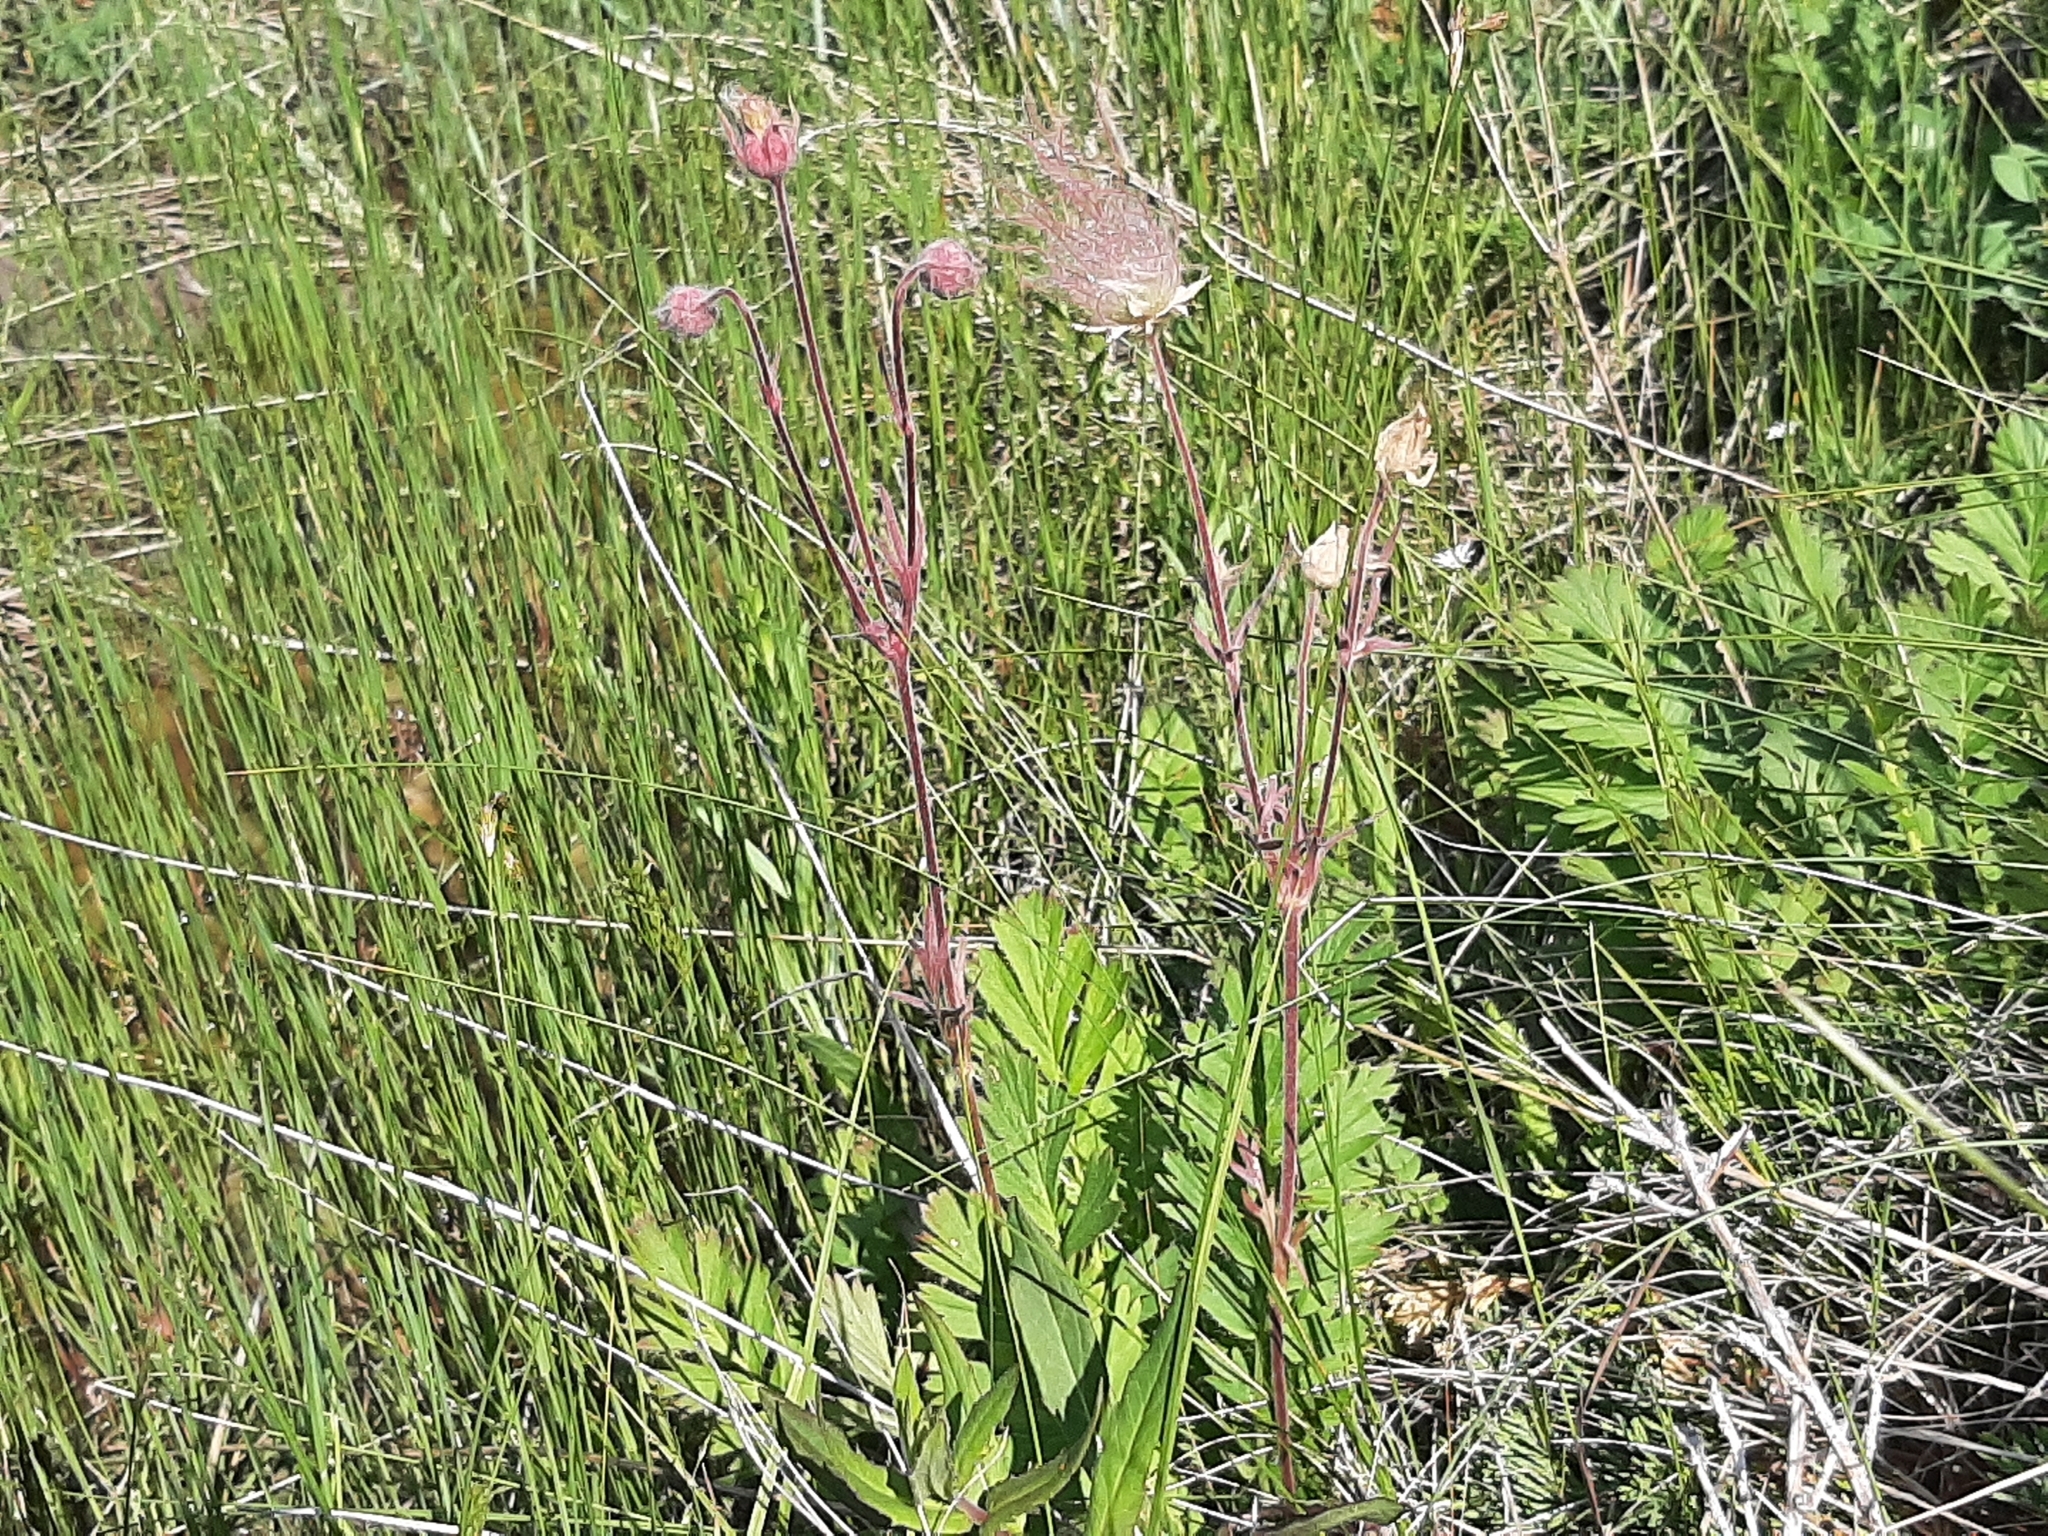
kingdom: Plantae
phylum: Tracheophyta
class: Magnoliopsida
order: Rosales
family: Rosaceae
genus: Geum
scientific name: Geum triflorum
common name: Old man's whiskers
